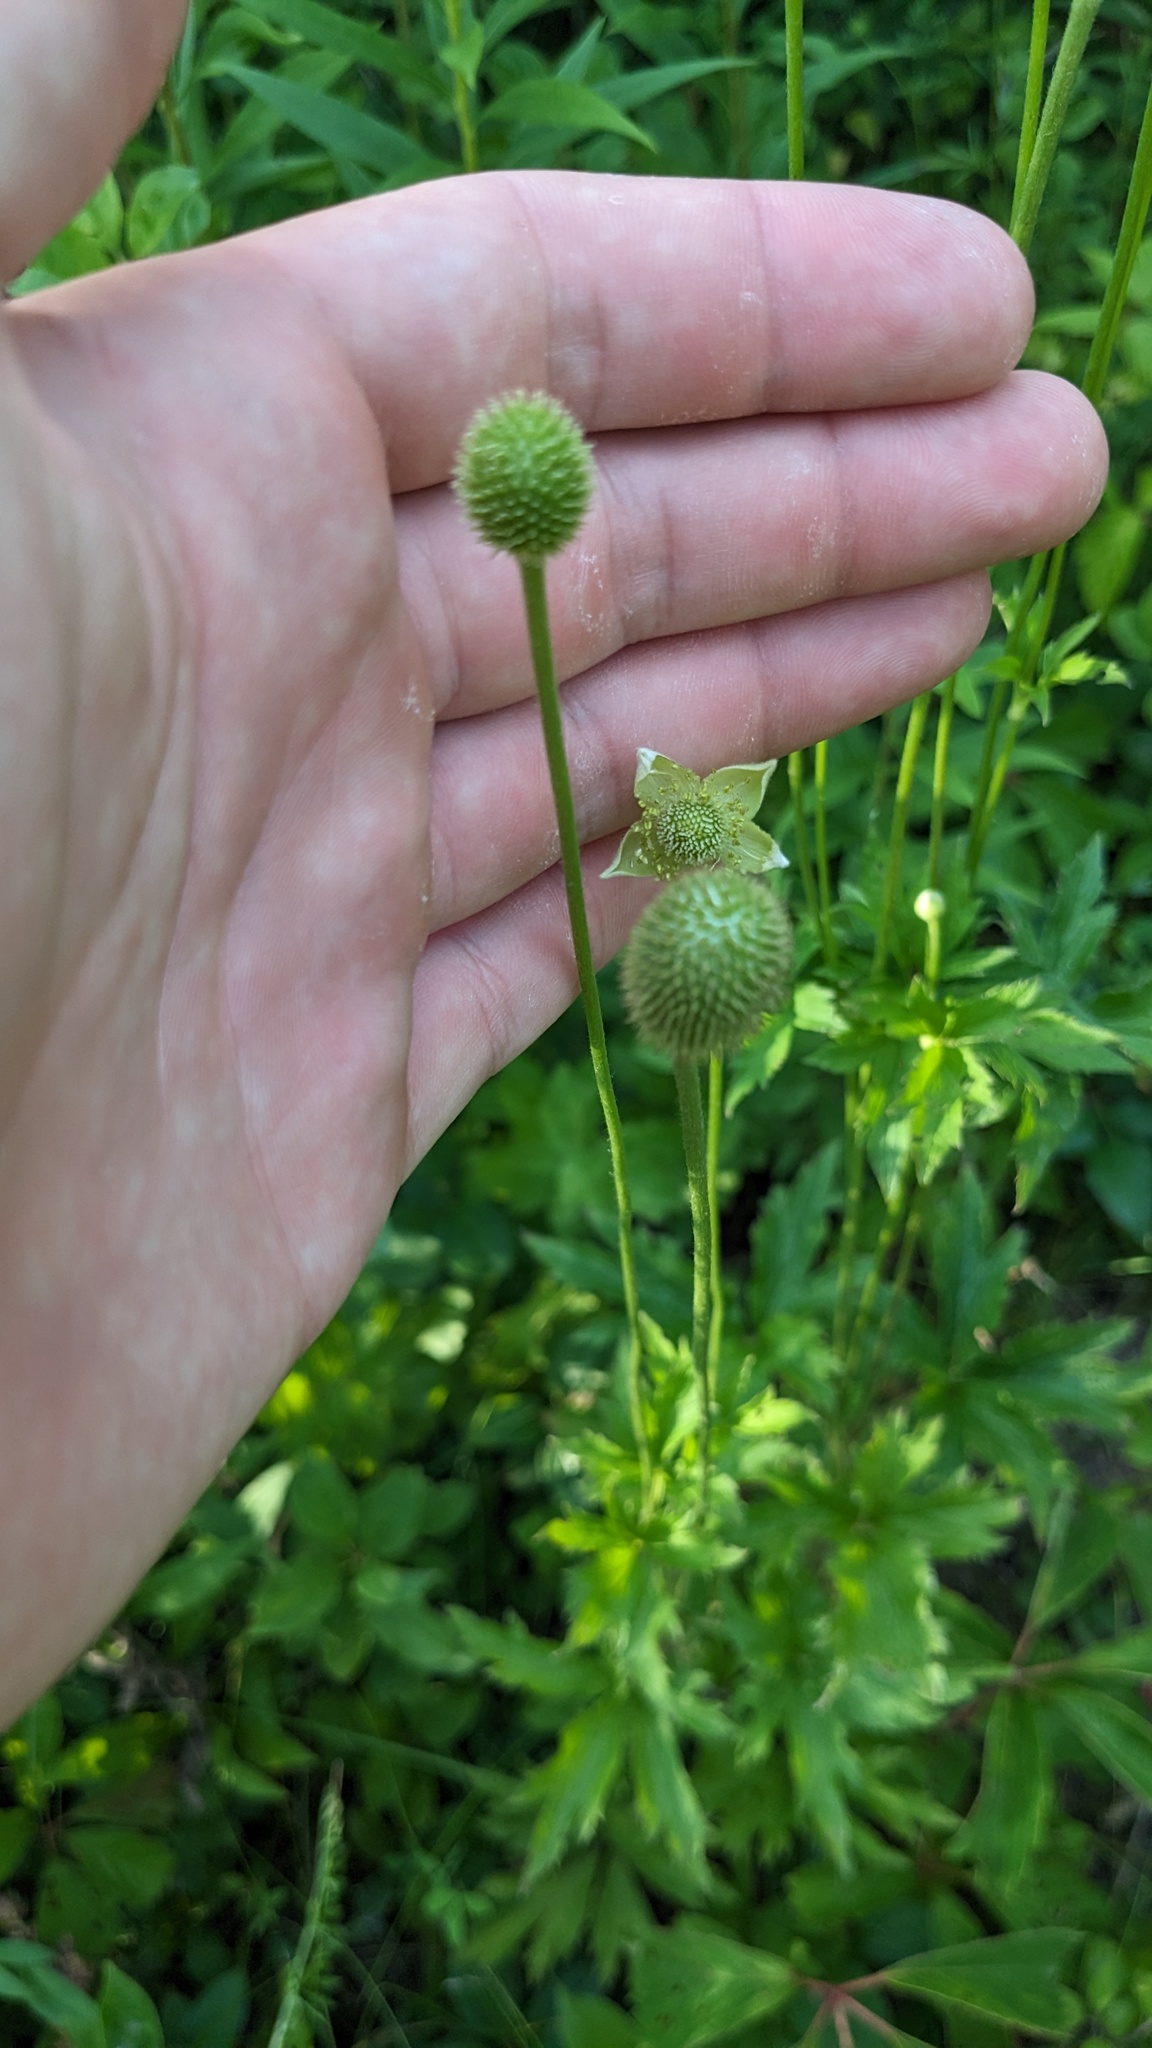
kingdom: Plantae
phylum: Tracheophyta
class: Magnoliopsida
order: Ranunculales
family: Ranunculaceae
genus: Anemone
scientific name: Anemone virginiana
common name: Tall anemone
